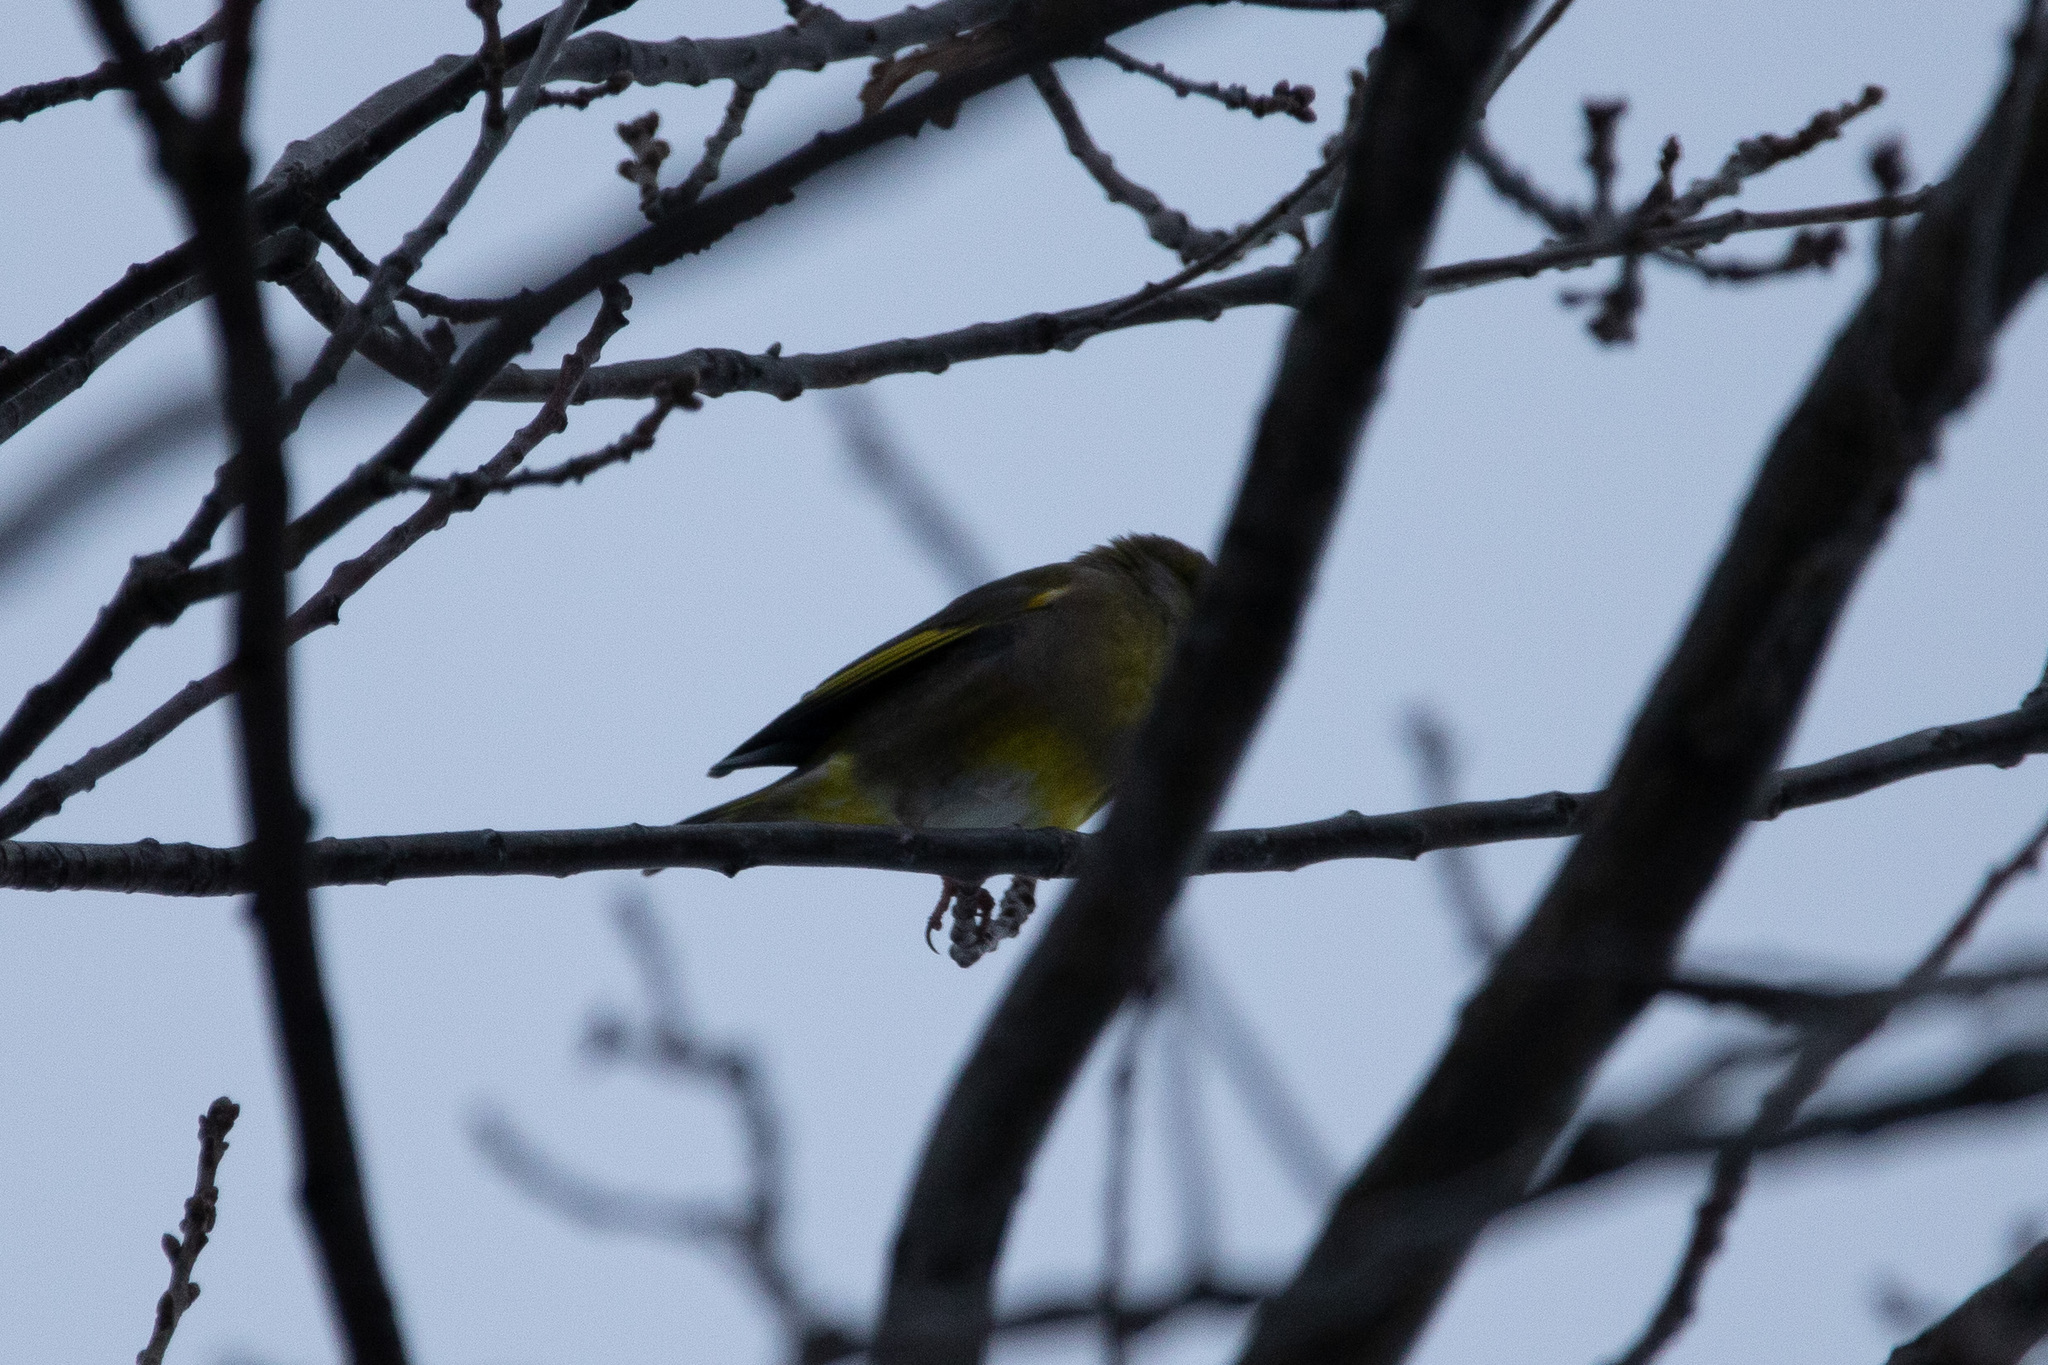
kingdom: Plantae
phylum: Tracheophyta
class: Liliopsida
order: Poales
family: Poaceae
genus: Chloris
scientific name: Chloris chloris
